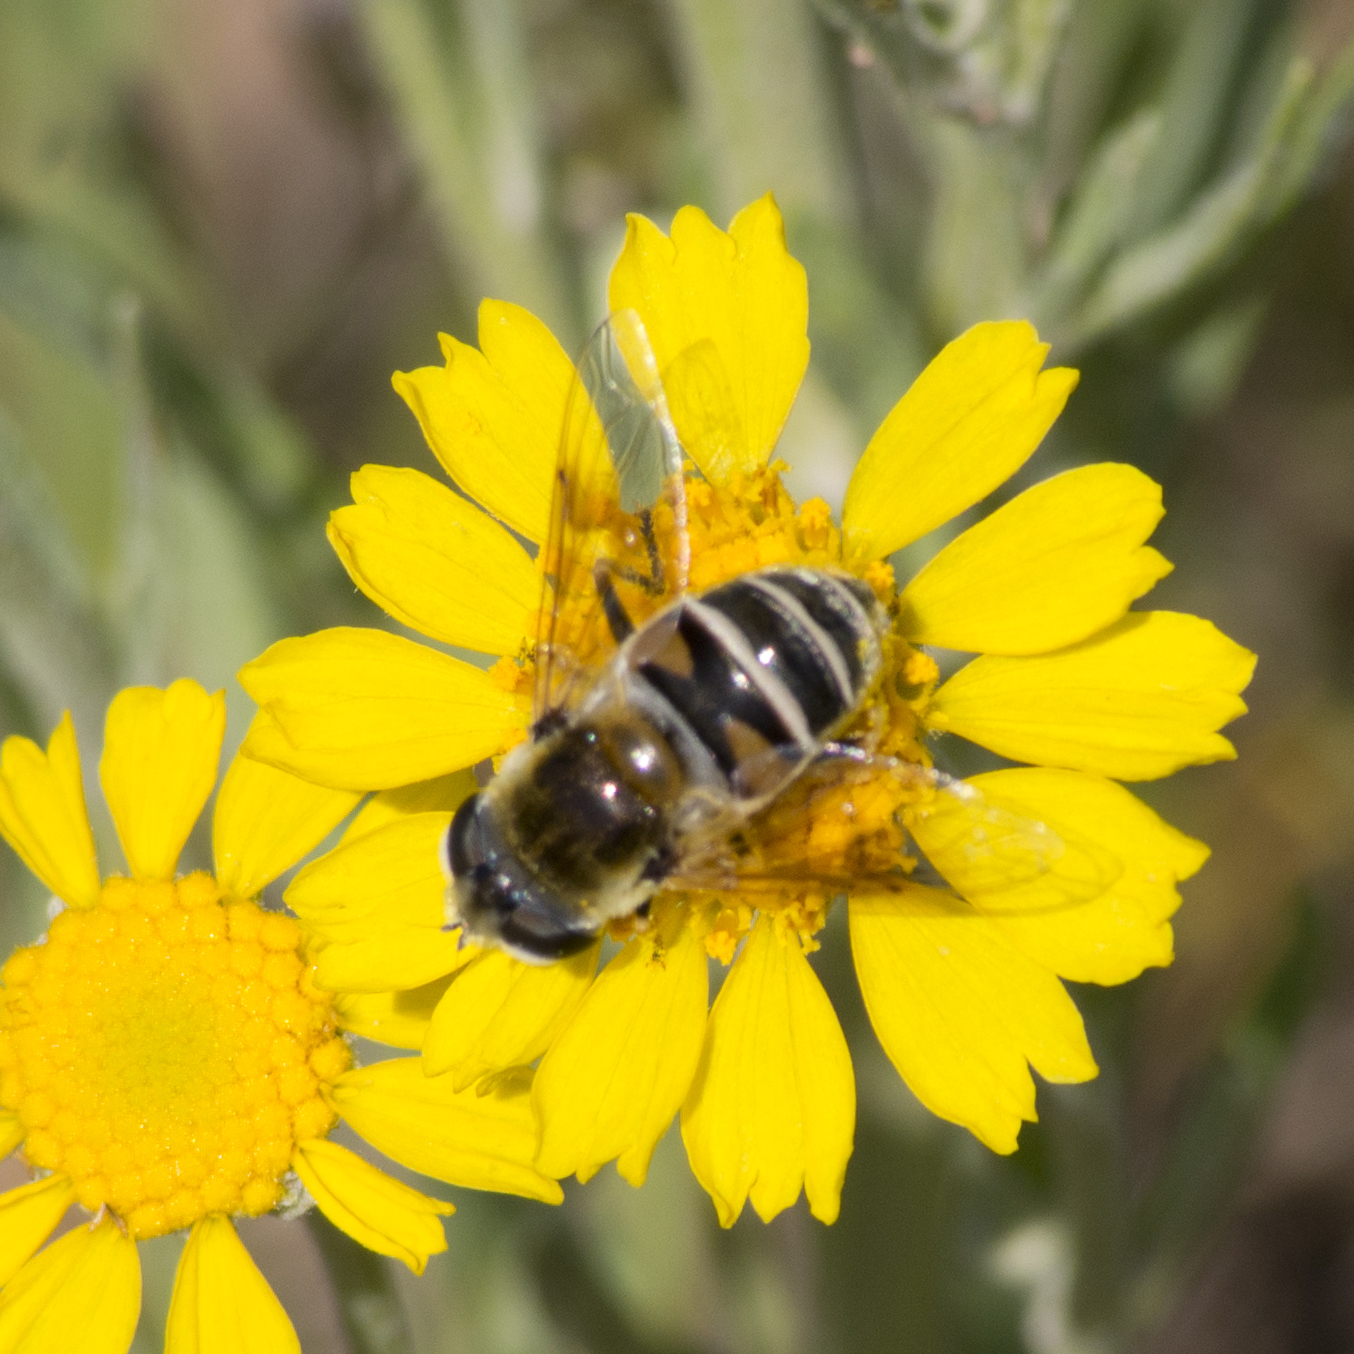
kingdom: Animalia
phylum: Arthropoda
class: Insecta
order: Diptera
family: Syrphidae
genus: Eristalis
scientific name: Eristalis stipator
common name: Yellow-shouldered drone fly
